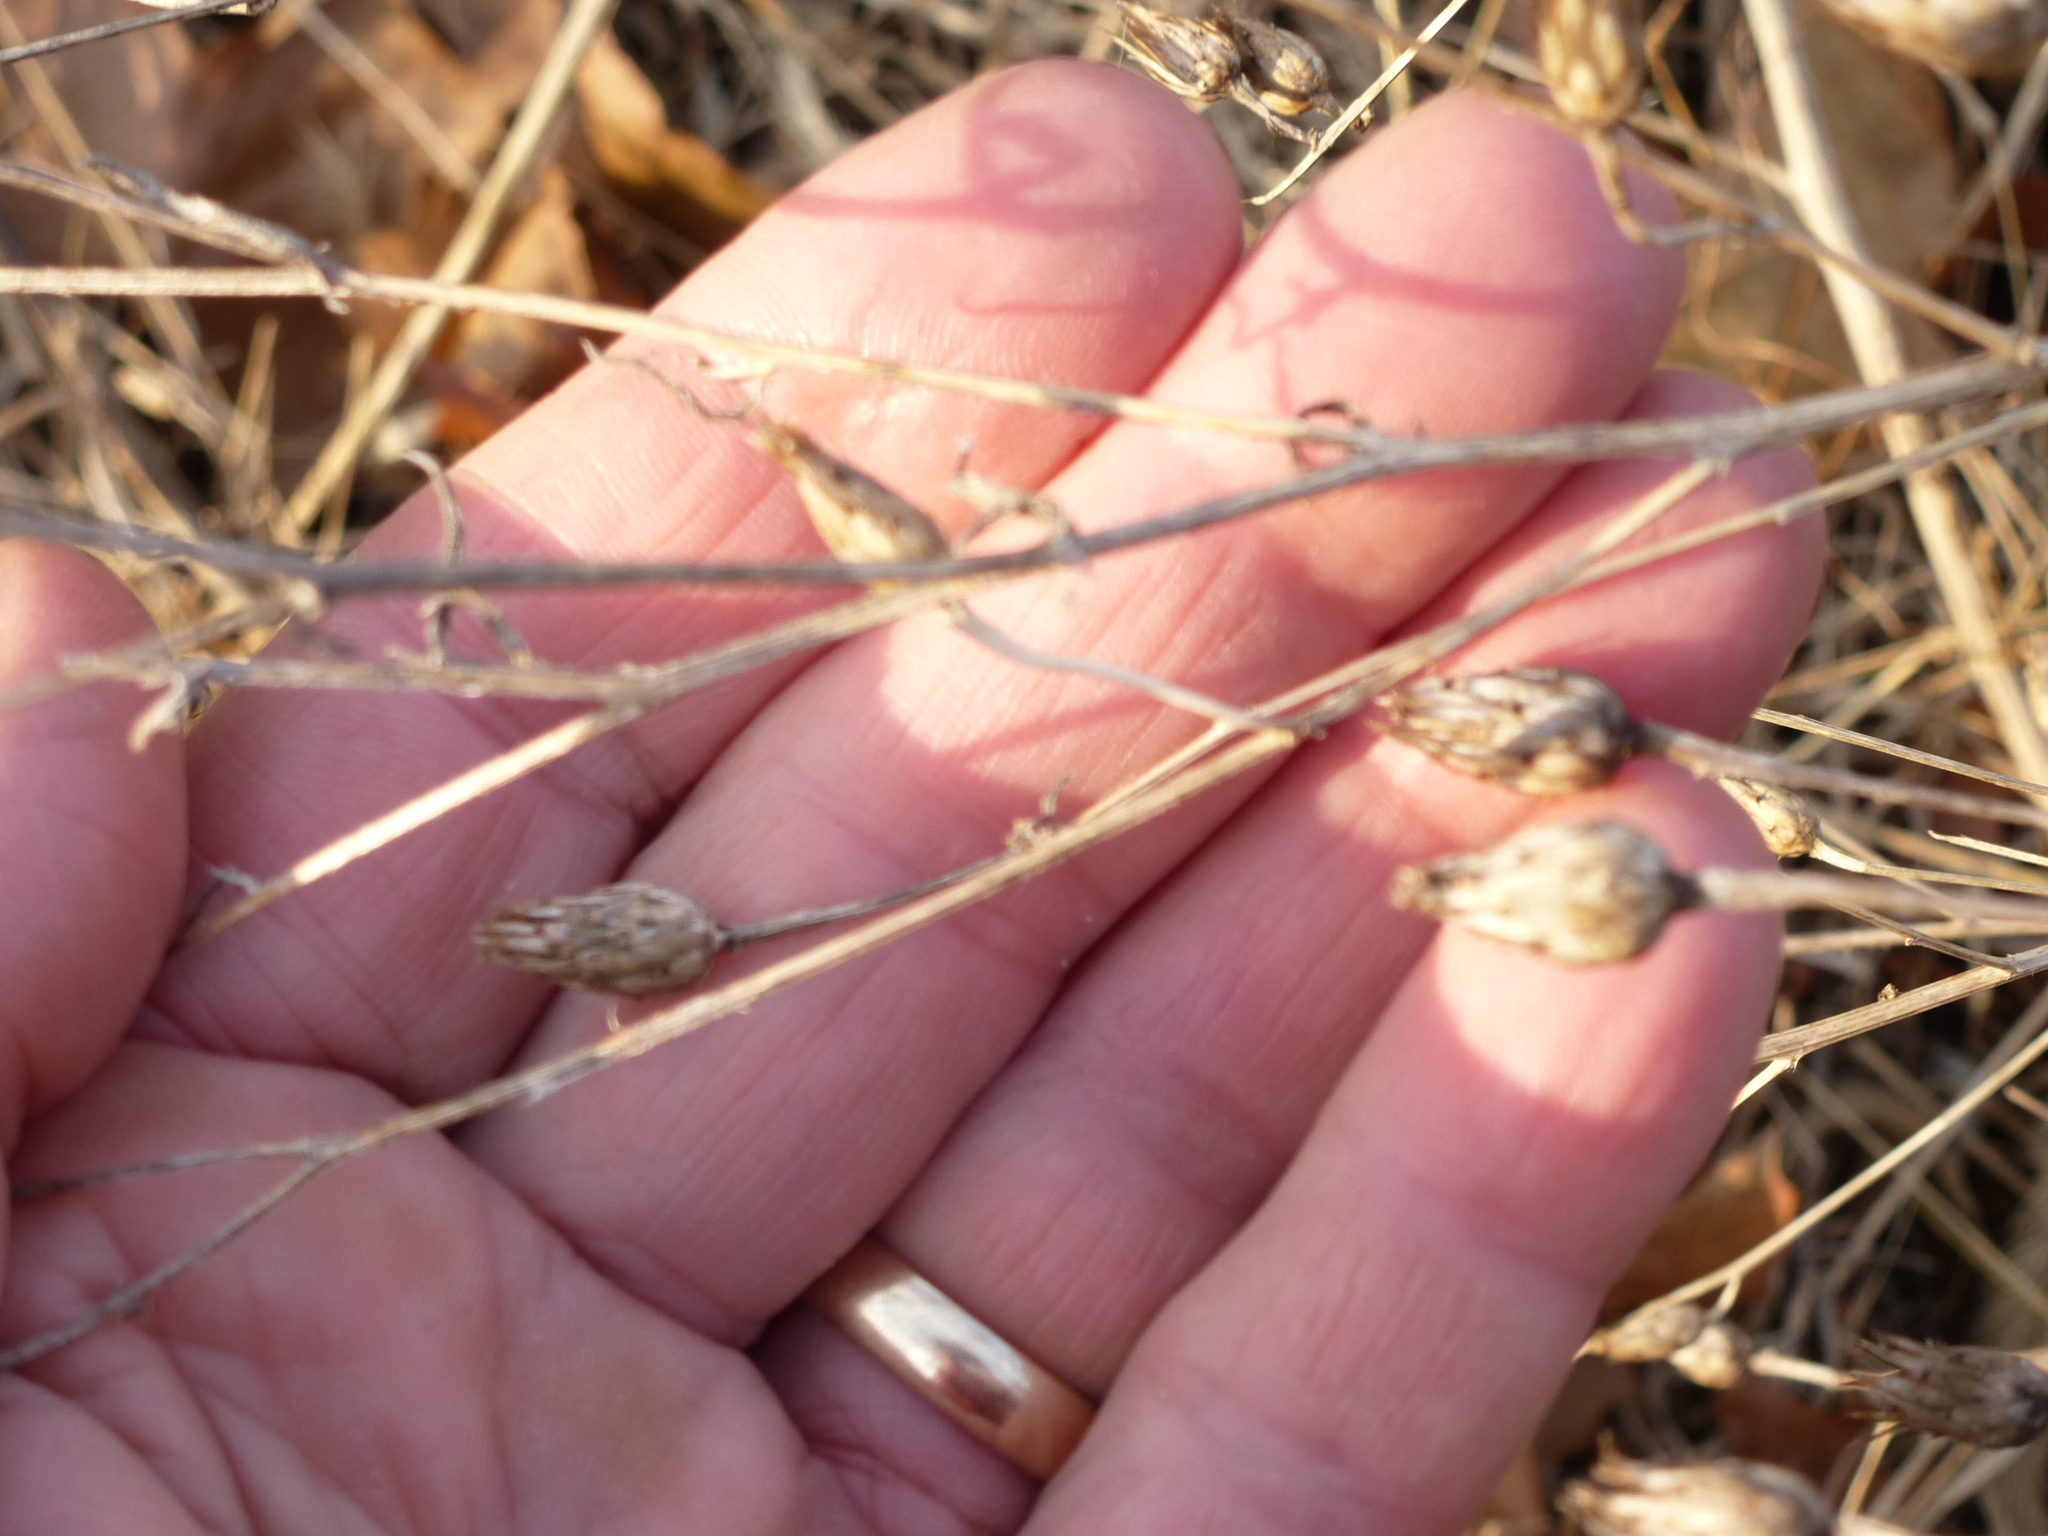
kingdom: Plantae
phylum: Tracheophyta
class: Magnoliopsida
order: Asterales
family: Asteraceae
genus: Centaurea
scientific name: Centaurea stoebe
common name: Spotted knapweed
